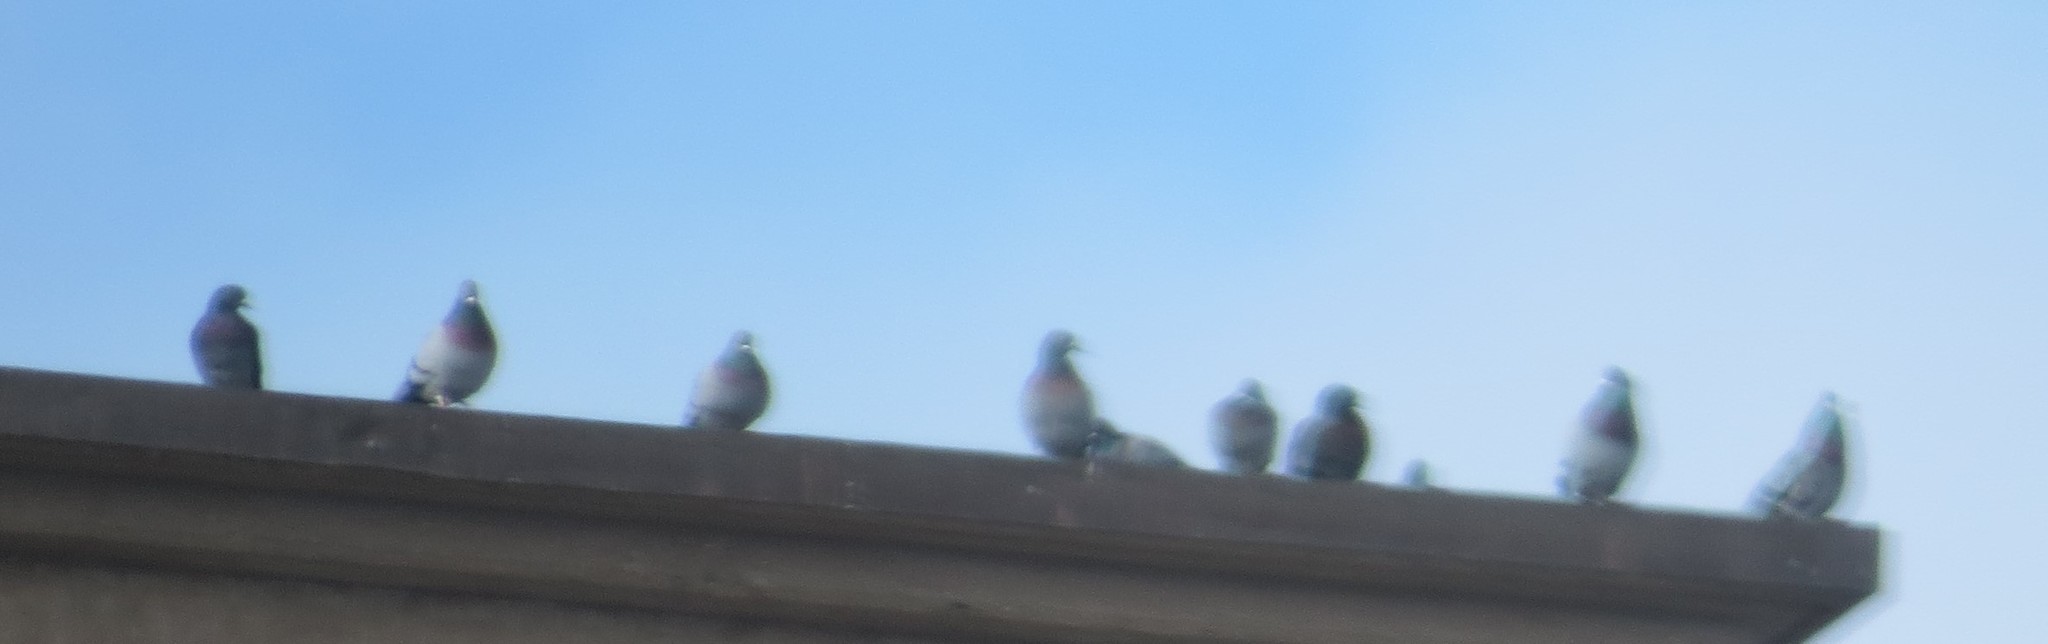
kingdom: Animalia
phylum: Chordata
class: Aves
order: Columbiformes
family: Columbidae
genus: Columba
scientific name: Columba livia
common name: Rock pigeon
